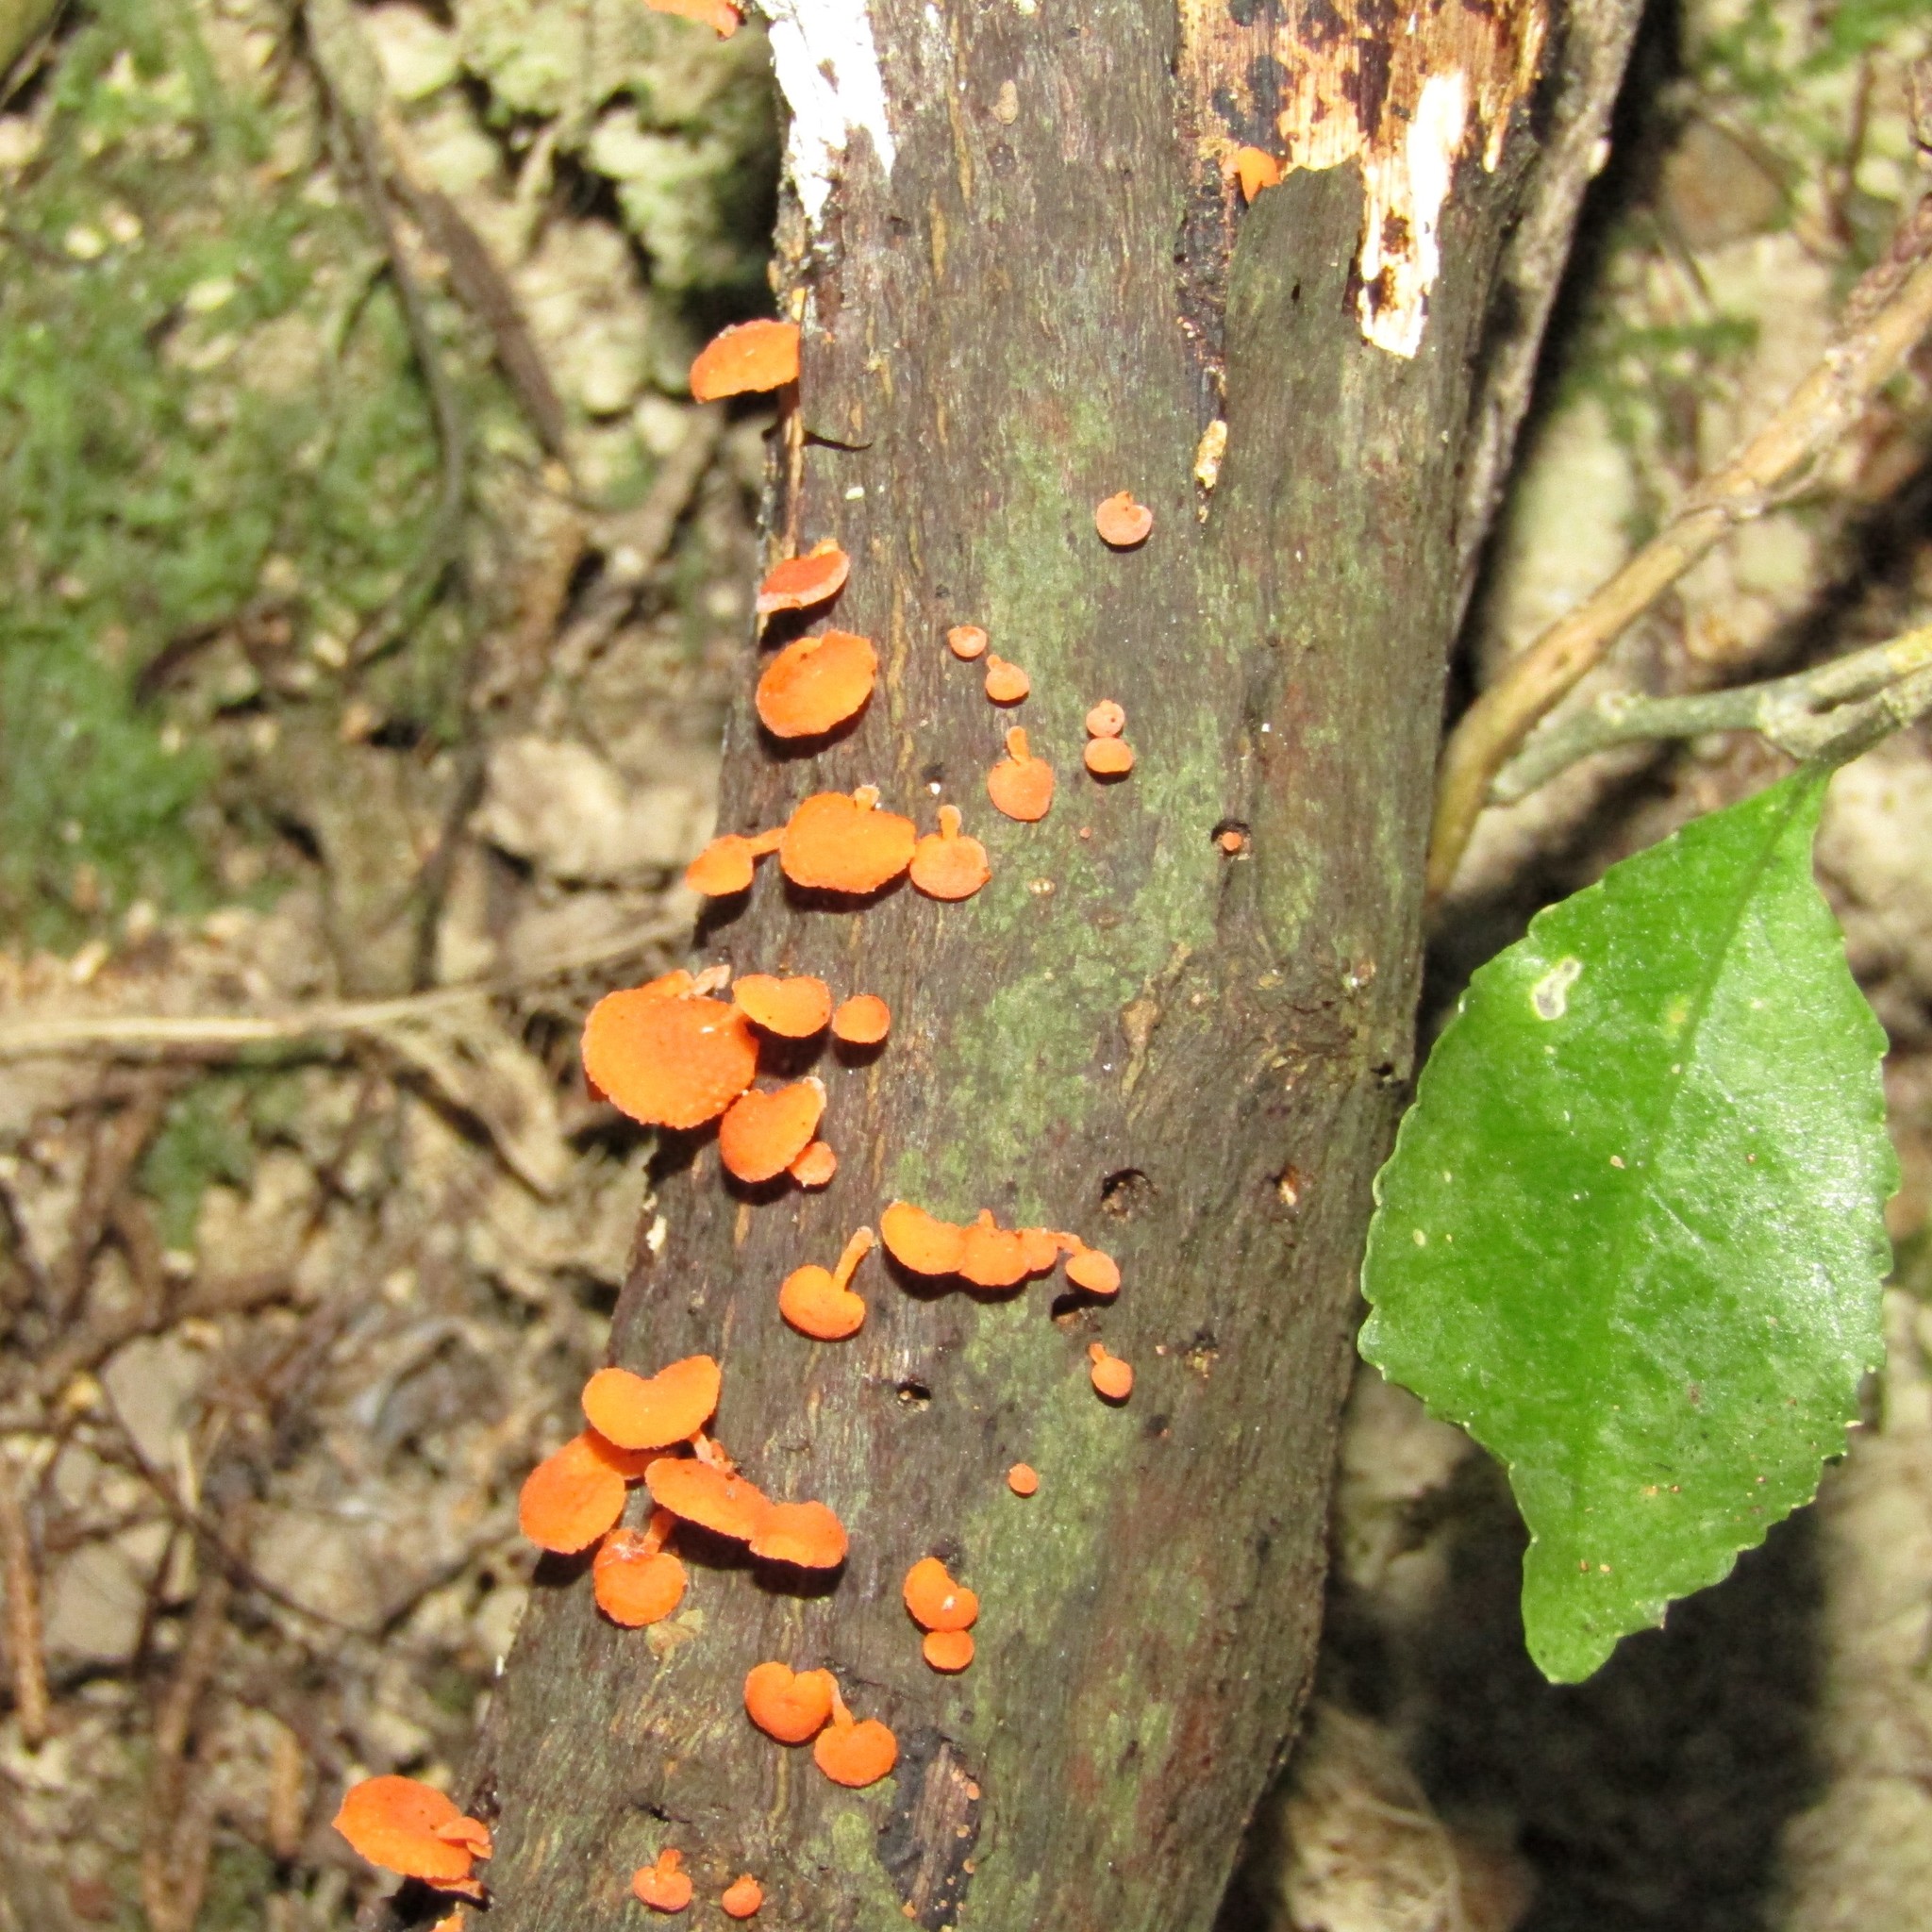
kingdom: Fungi
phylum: Basidiomycota
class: Agaricomycetes
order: Agaricales
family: Mycenaceae
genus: Favolaschia
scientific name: Favolaschia claudopus
